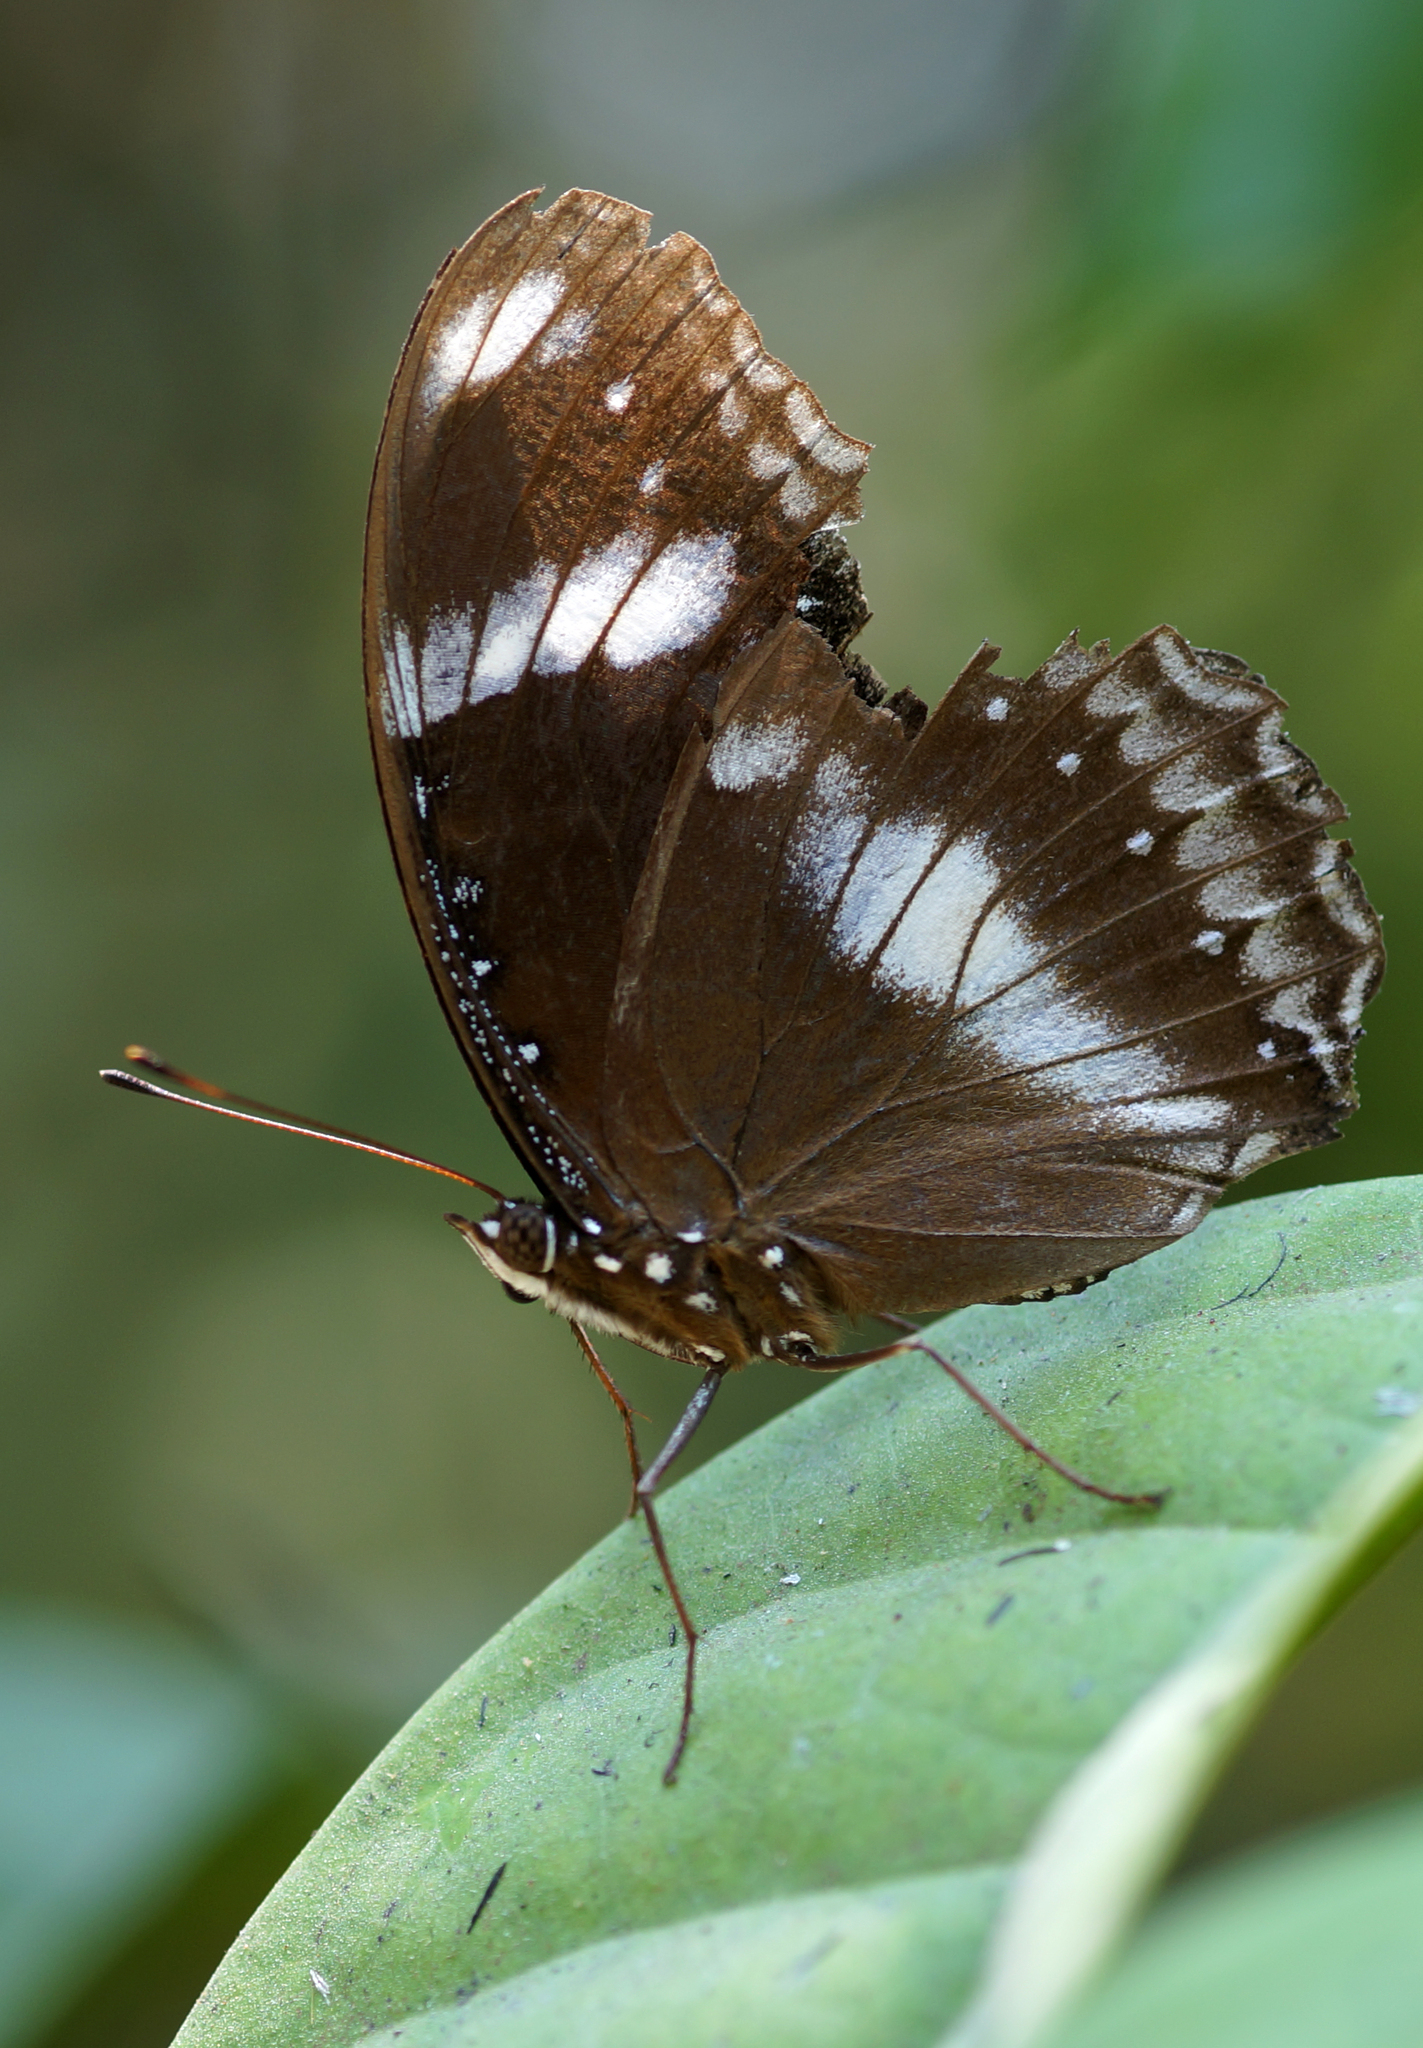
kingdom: Animalia
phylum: Arthropoda
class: Insecta
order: Lepidoptera
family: Nymphalidae
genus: Hypolimnas
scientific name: Hypolimnas bolina
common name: Great eggfly
